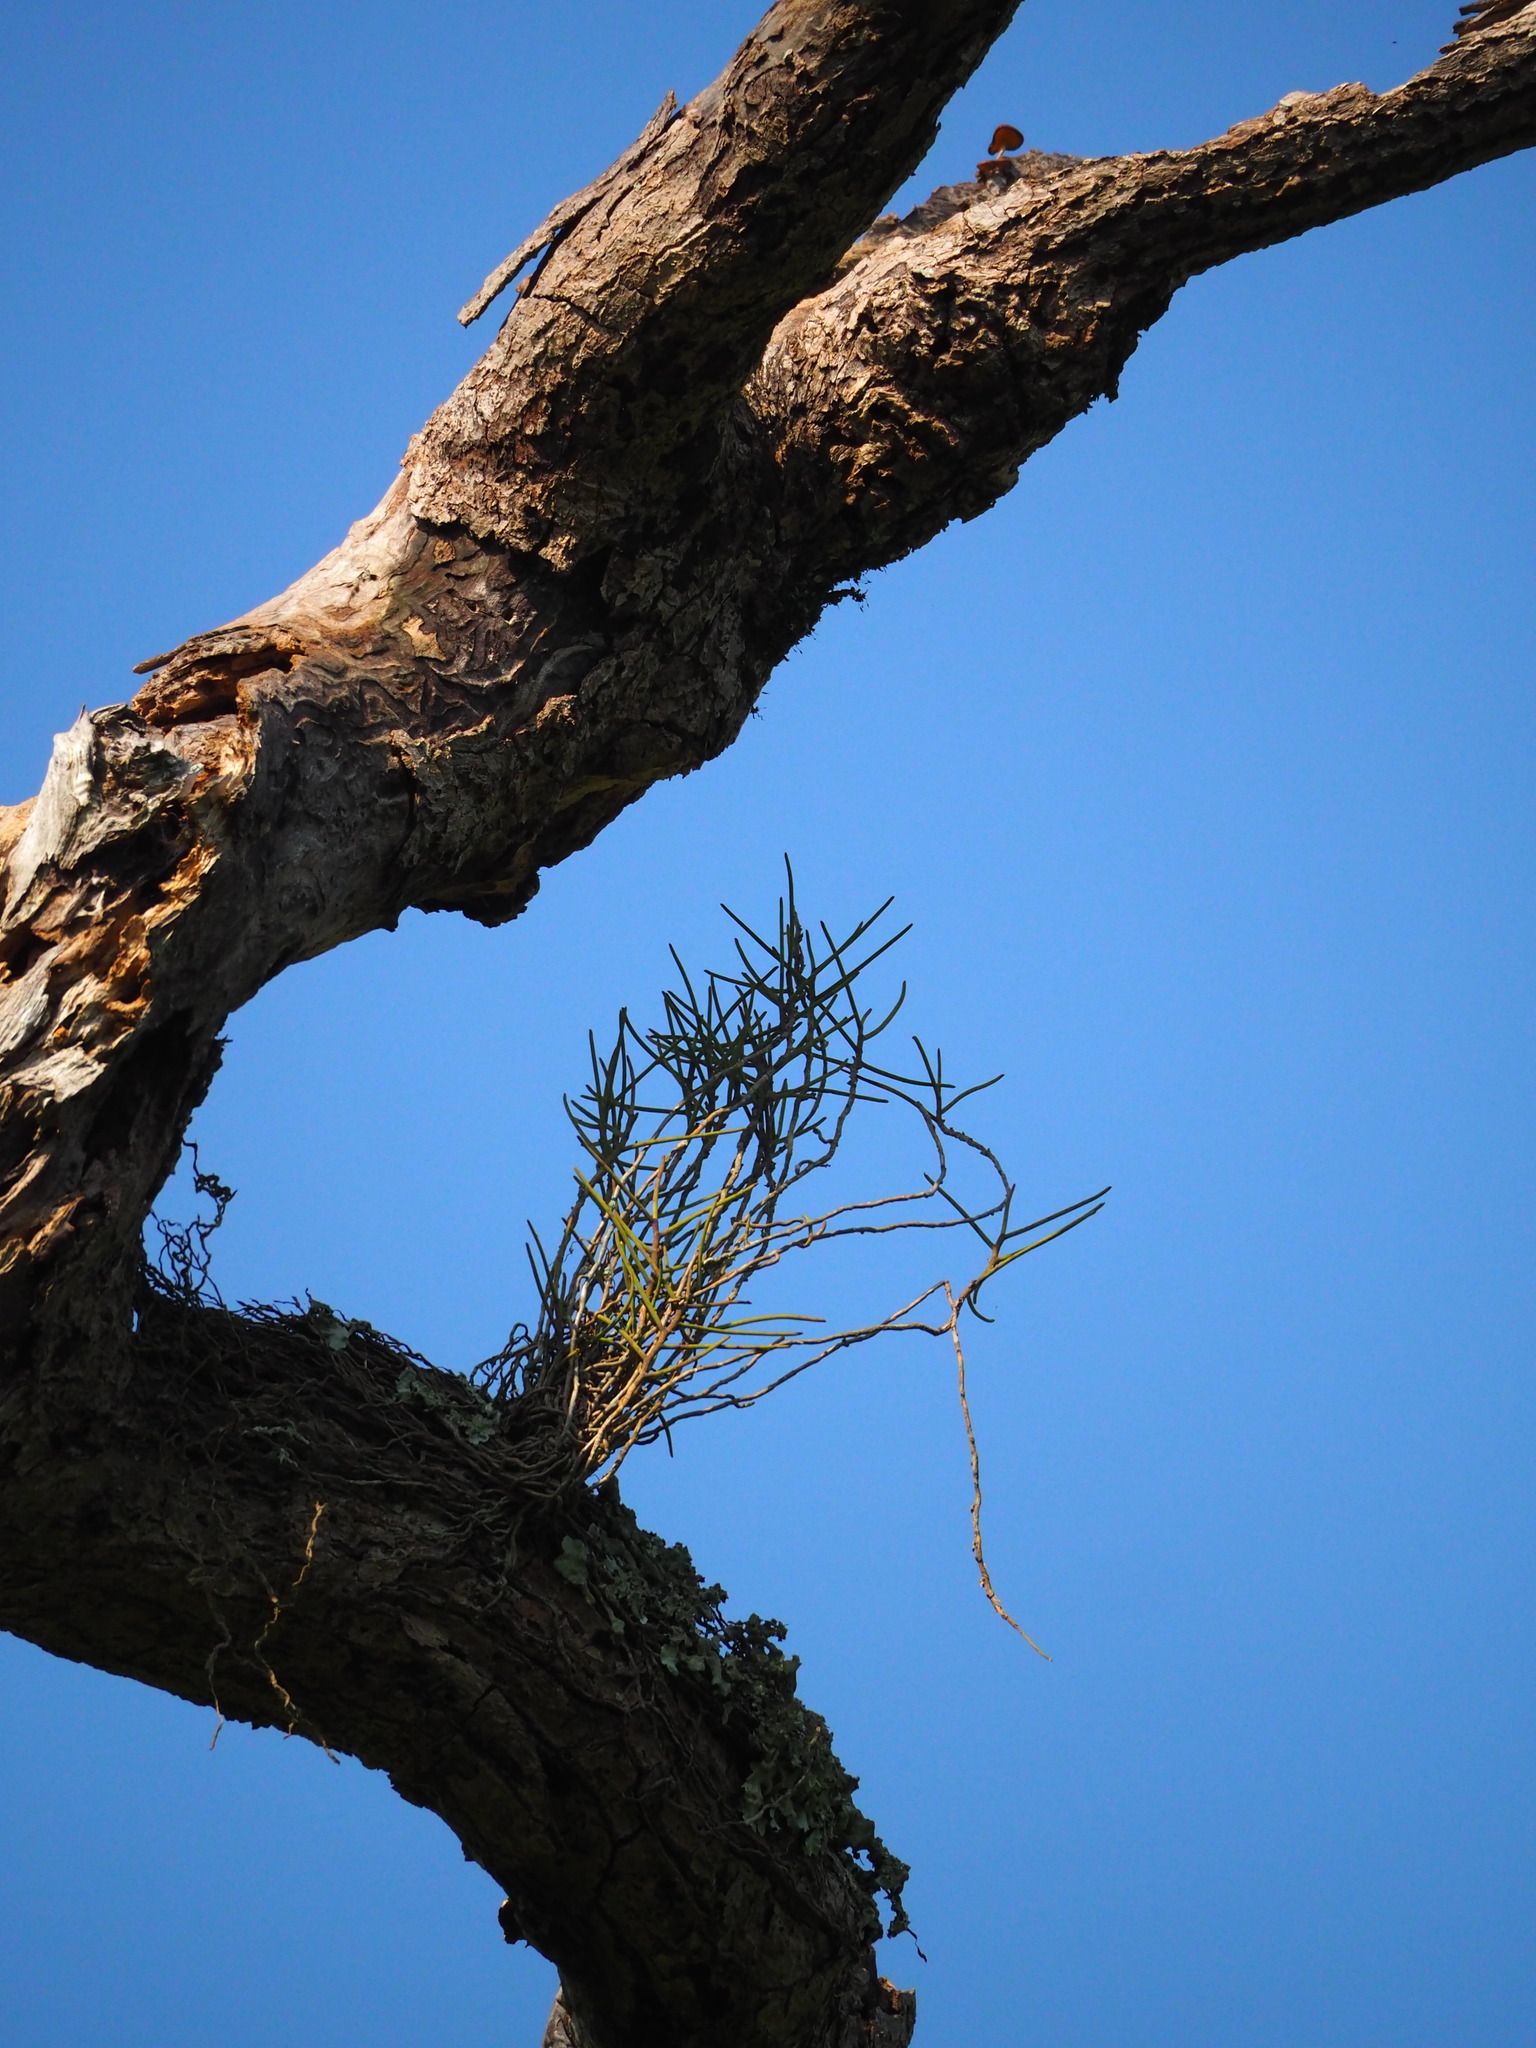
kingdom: Plantae
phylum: Tracheophyta
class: Liliopsida
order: Asparagales
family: Orchidaceae
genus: Luisia
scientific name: Luisia megasepala
